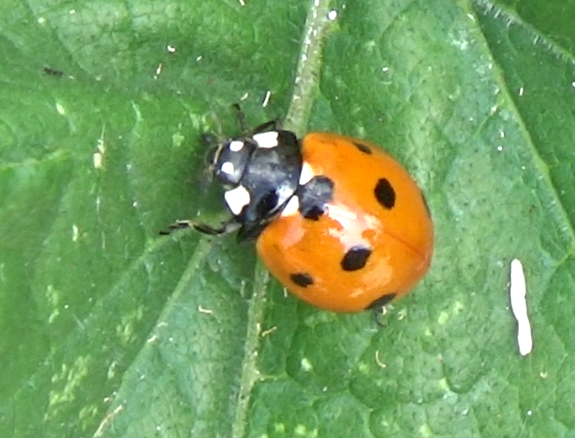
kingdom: Animalia
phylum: Arthropoda
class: Insecta
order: Coleoptera
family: Coccinellidae
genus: Coccinella
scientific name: Coccinella septempunctata
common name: Sevenspotted lady beetle
